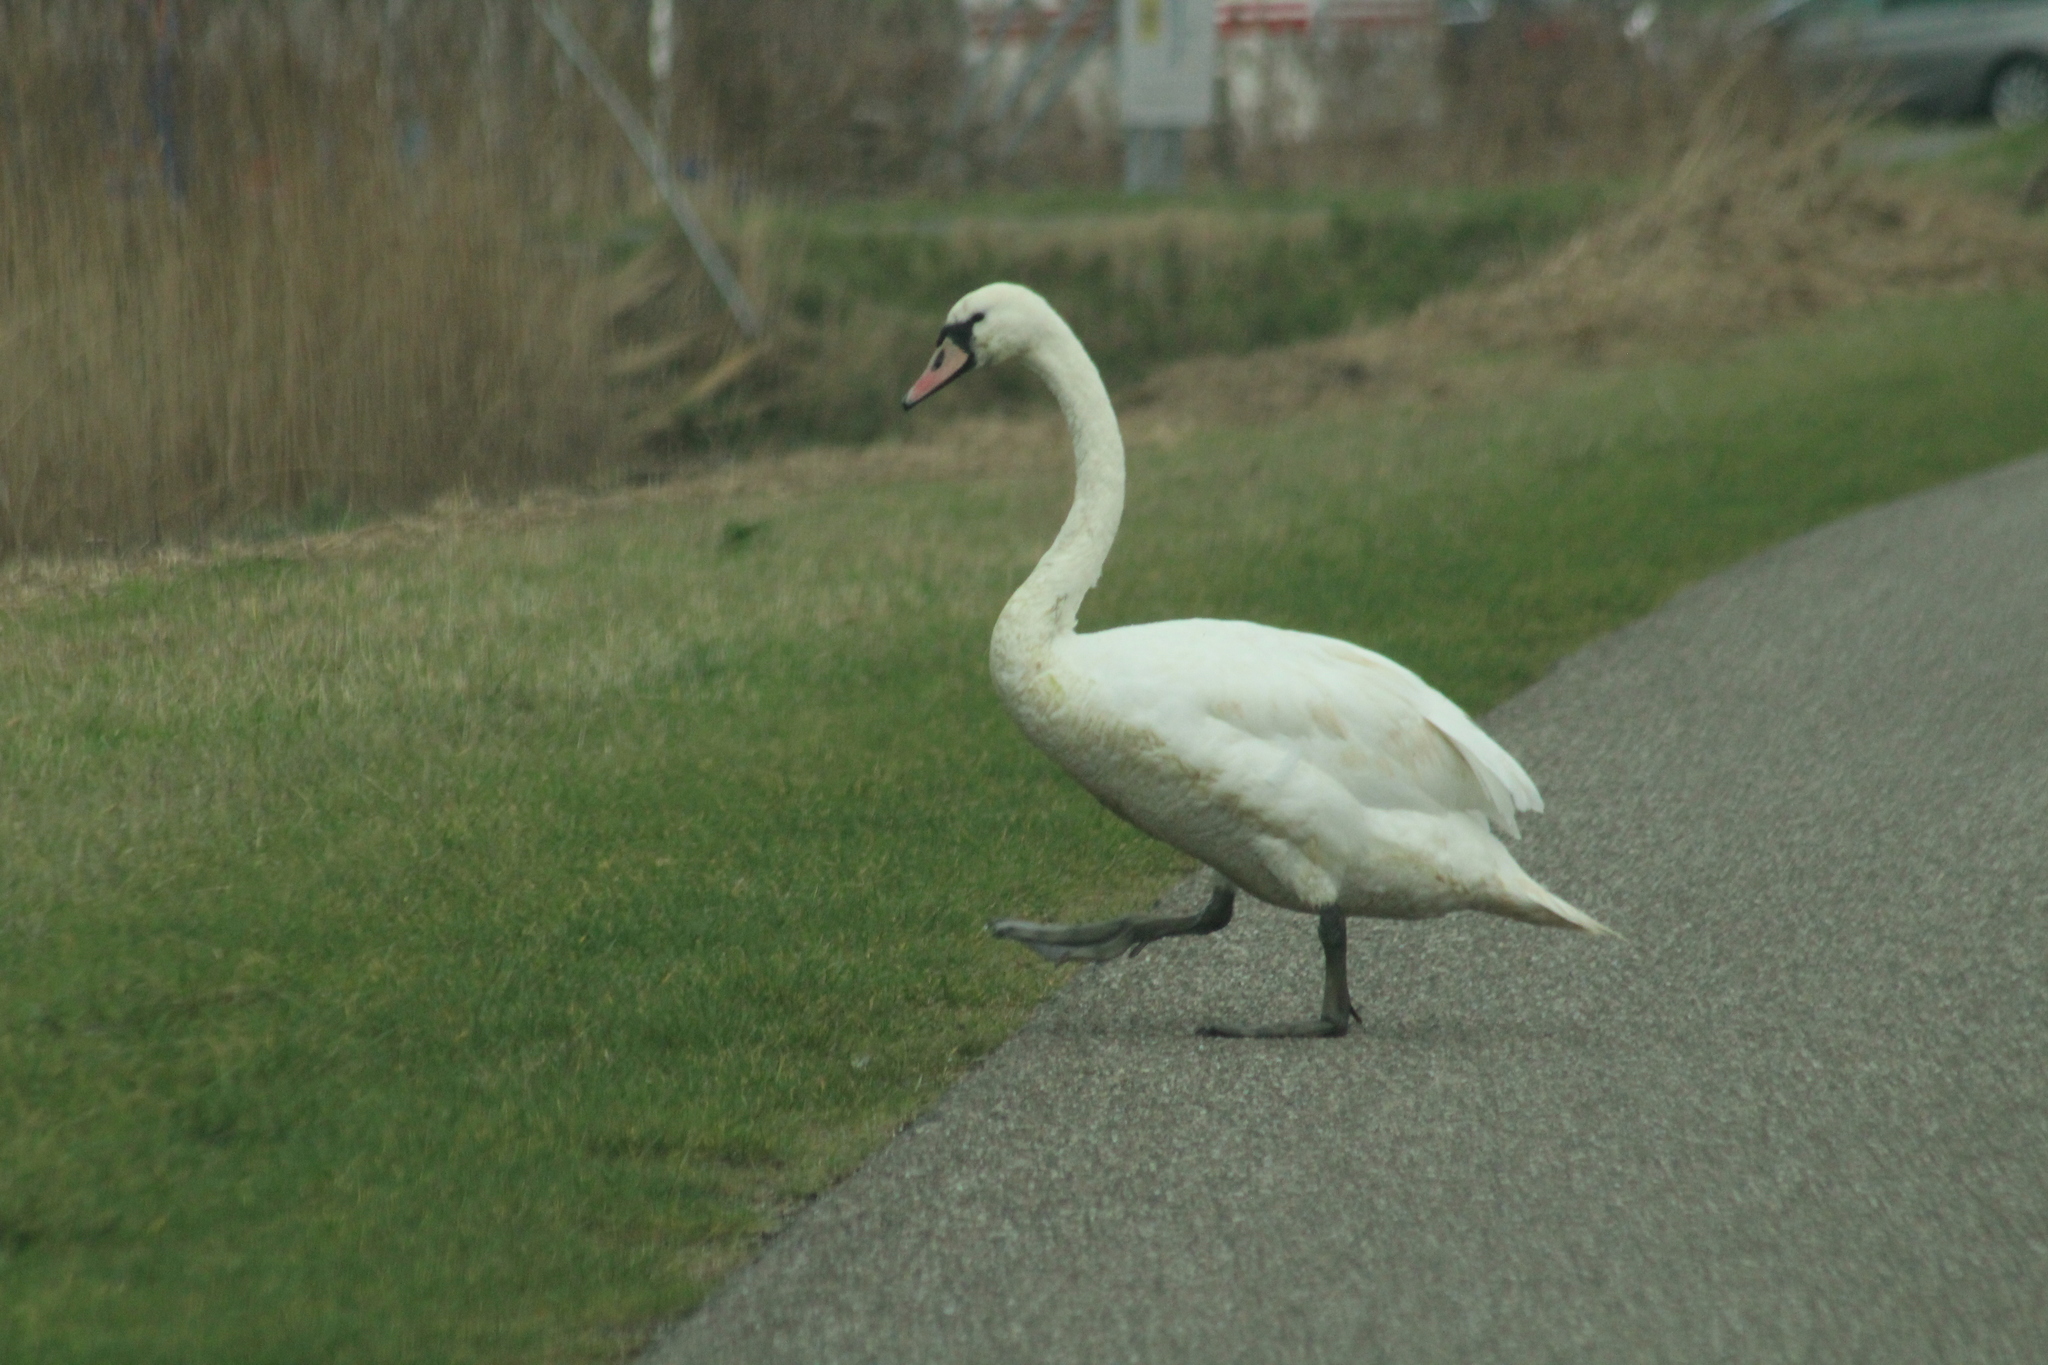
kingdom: Animalia
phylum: Chordata
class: Aves
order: Anseriformes
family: Anatidae
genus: Cygnus
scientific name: Cygnus olor
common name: Mute swan
